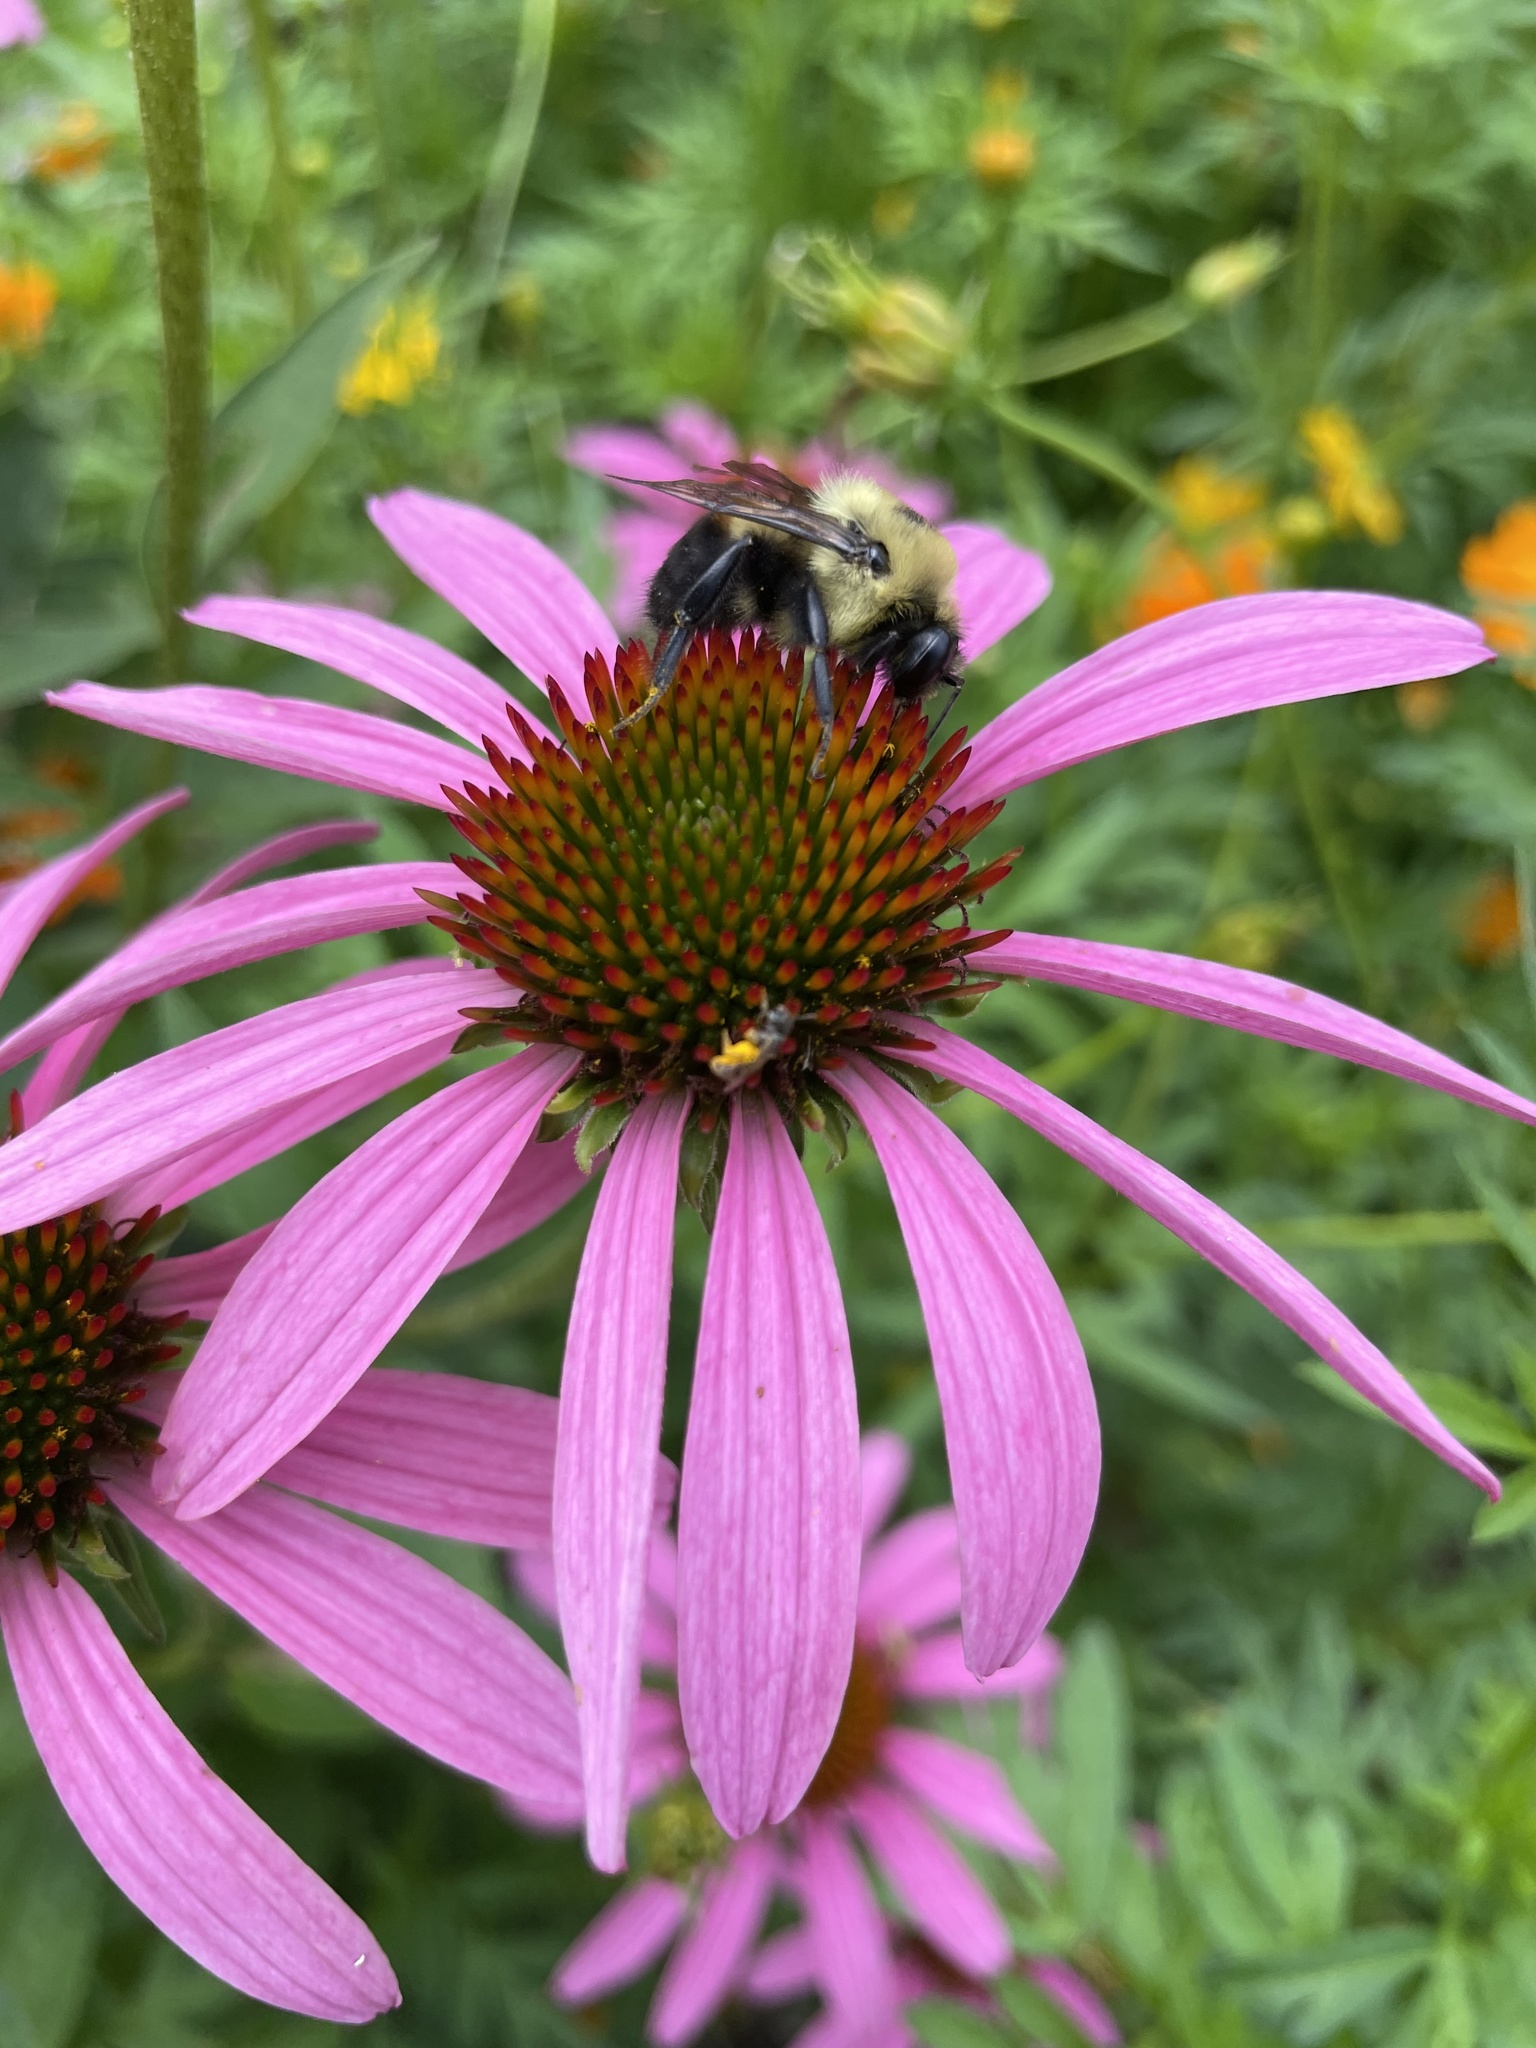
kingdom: Animalia
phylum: Arthropoda
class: Insecta
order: Hymenoptera
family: Apidae
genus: Bombus
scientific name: Bombus griseocollis
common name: Brown-belted bumble bee
